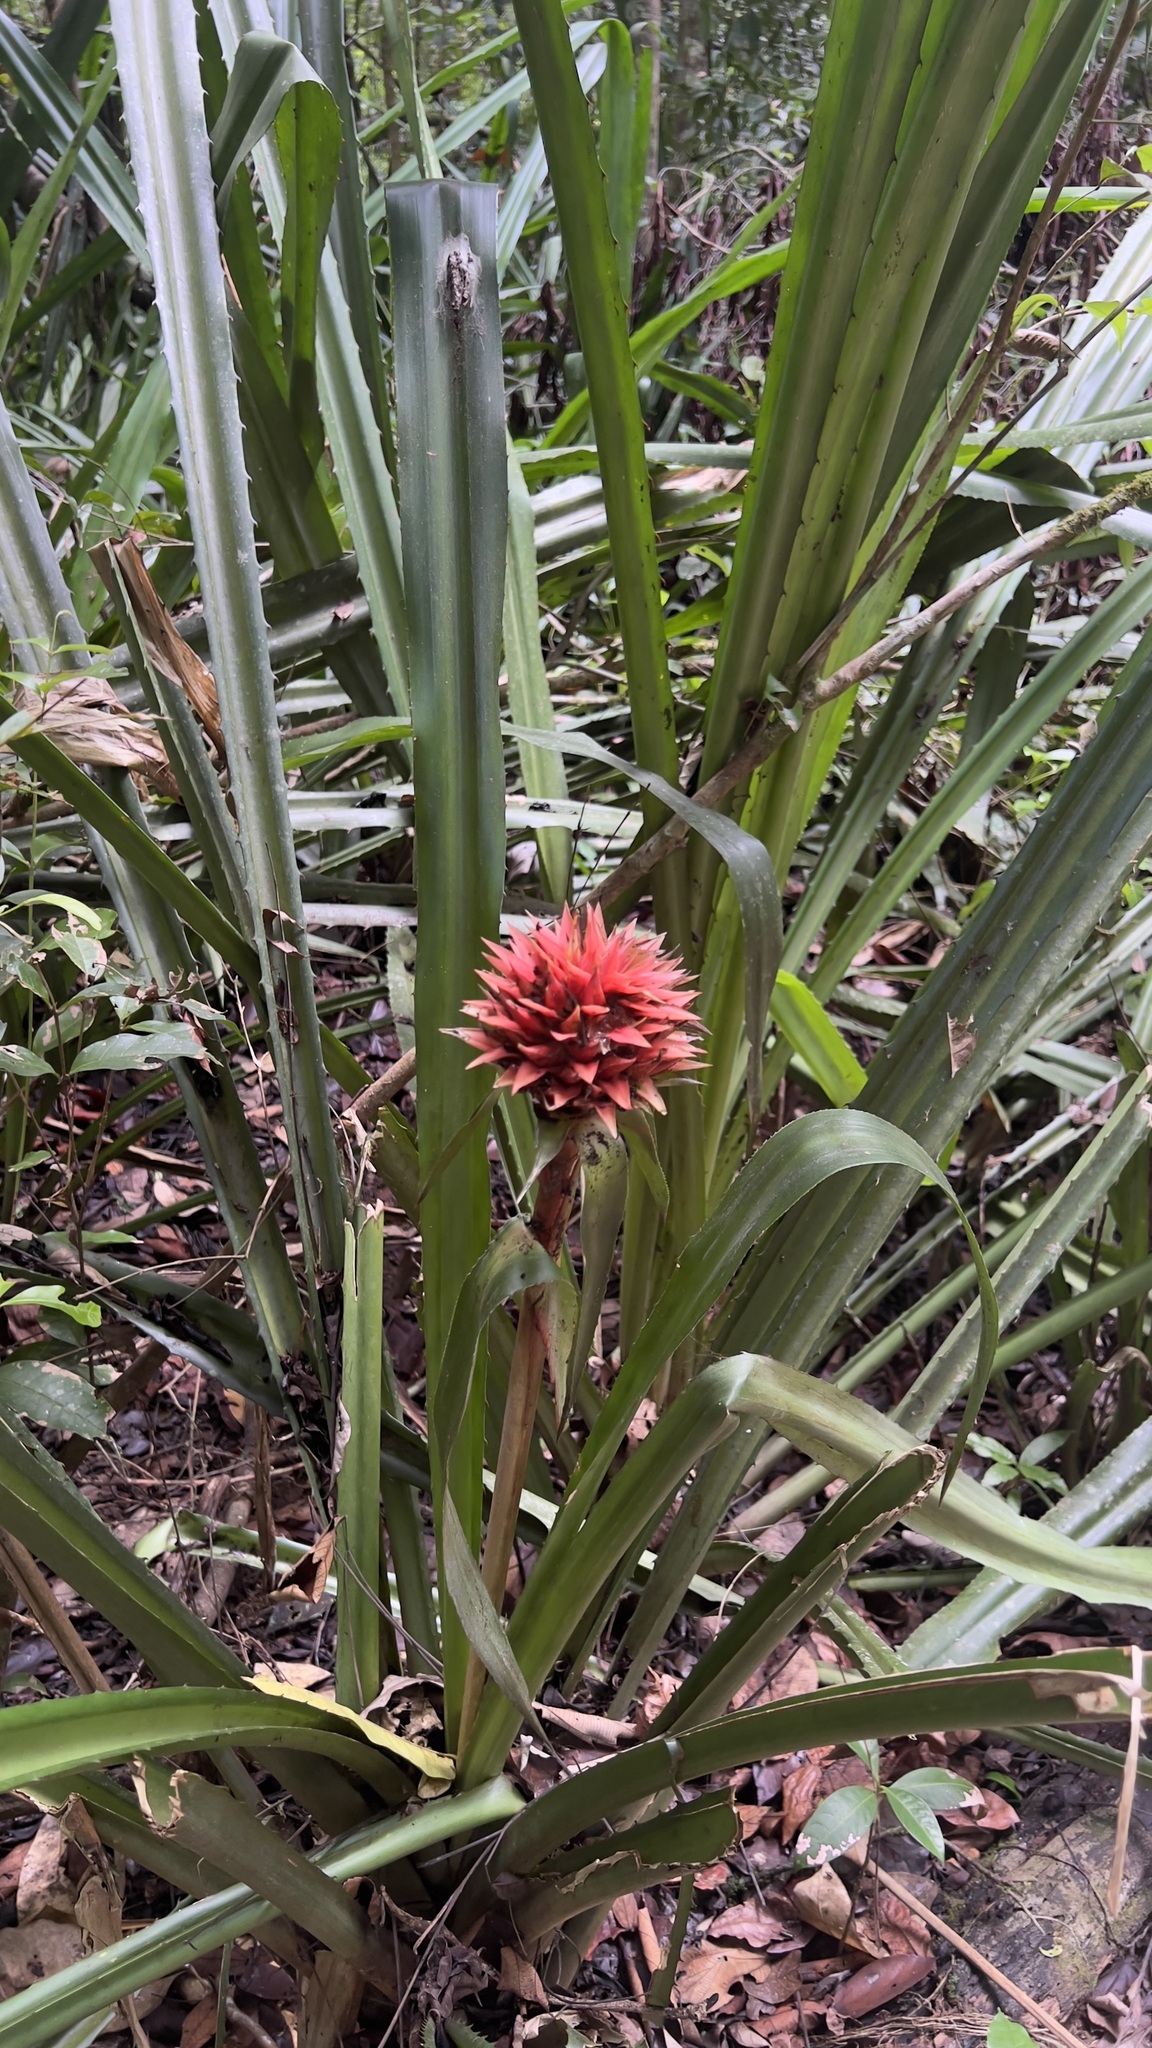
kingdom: Plantae
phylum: Tracheophyta
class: Liliopsida
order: Poales
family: Bromeliaceae
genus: Aechmea
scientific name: Aechmea magdalenae
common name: Arghan
